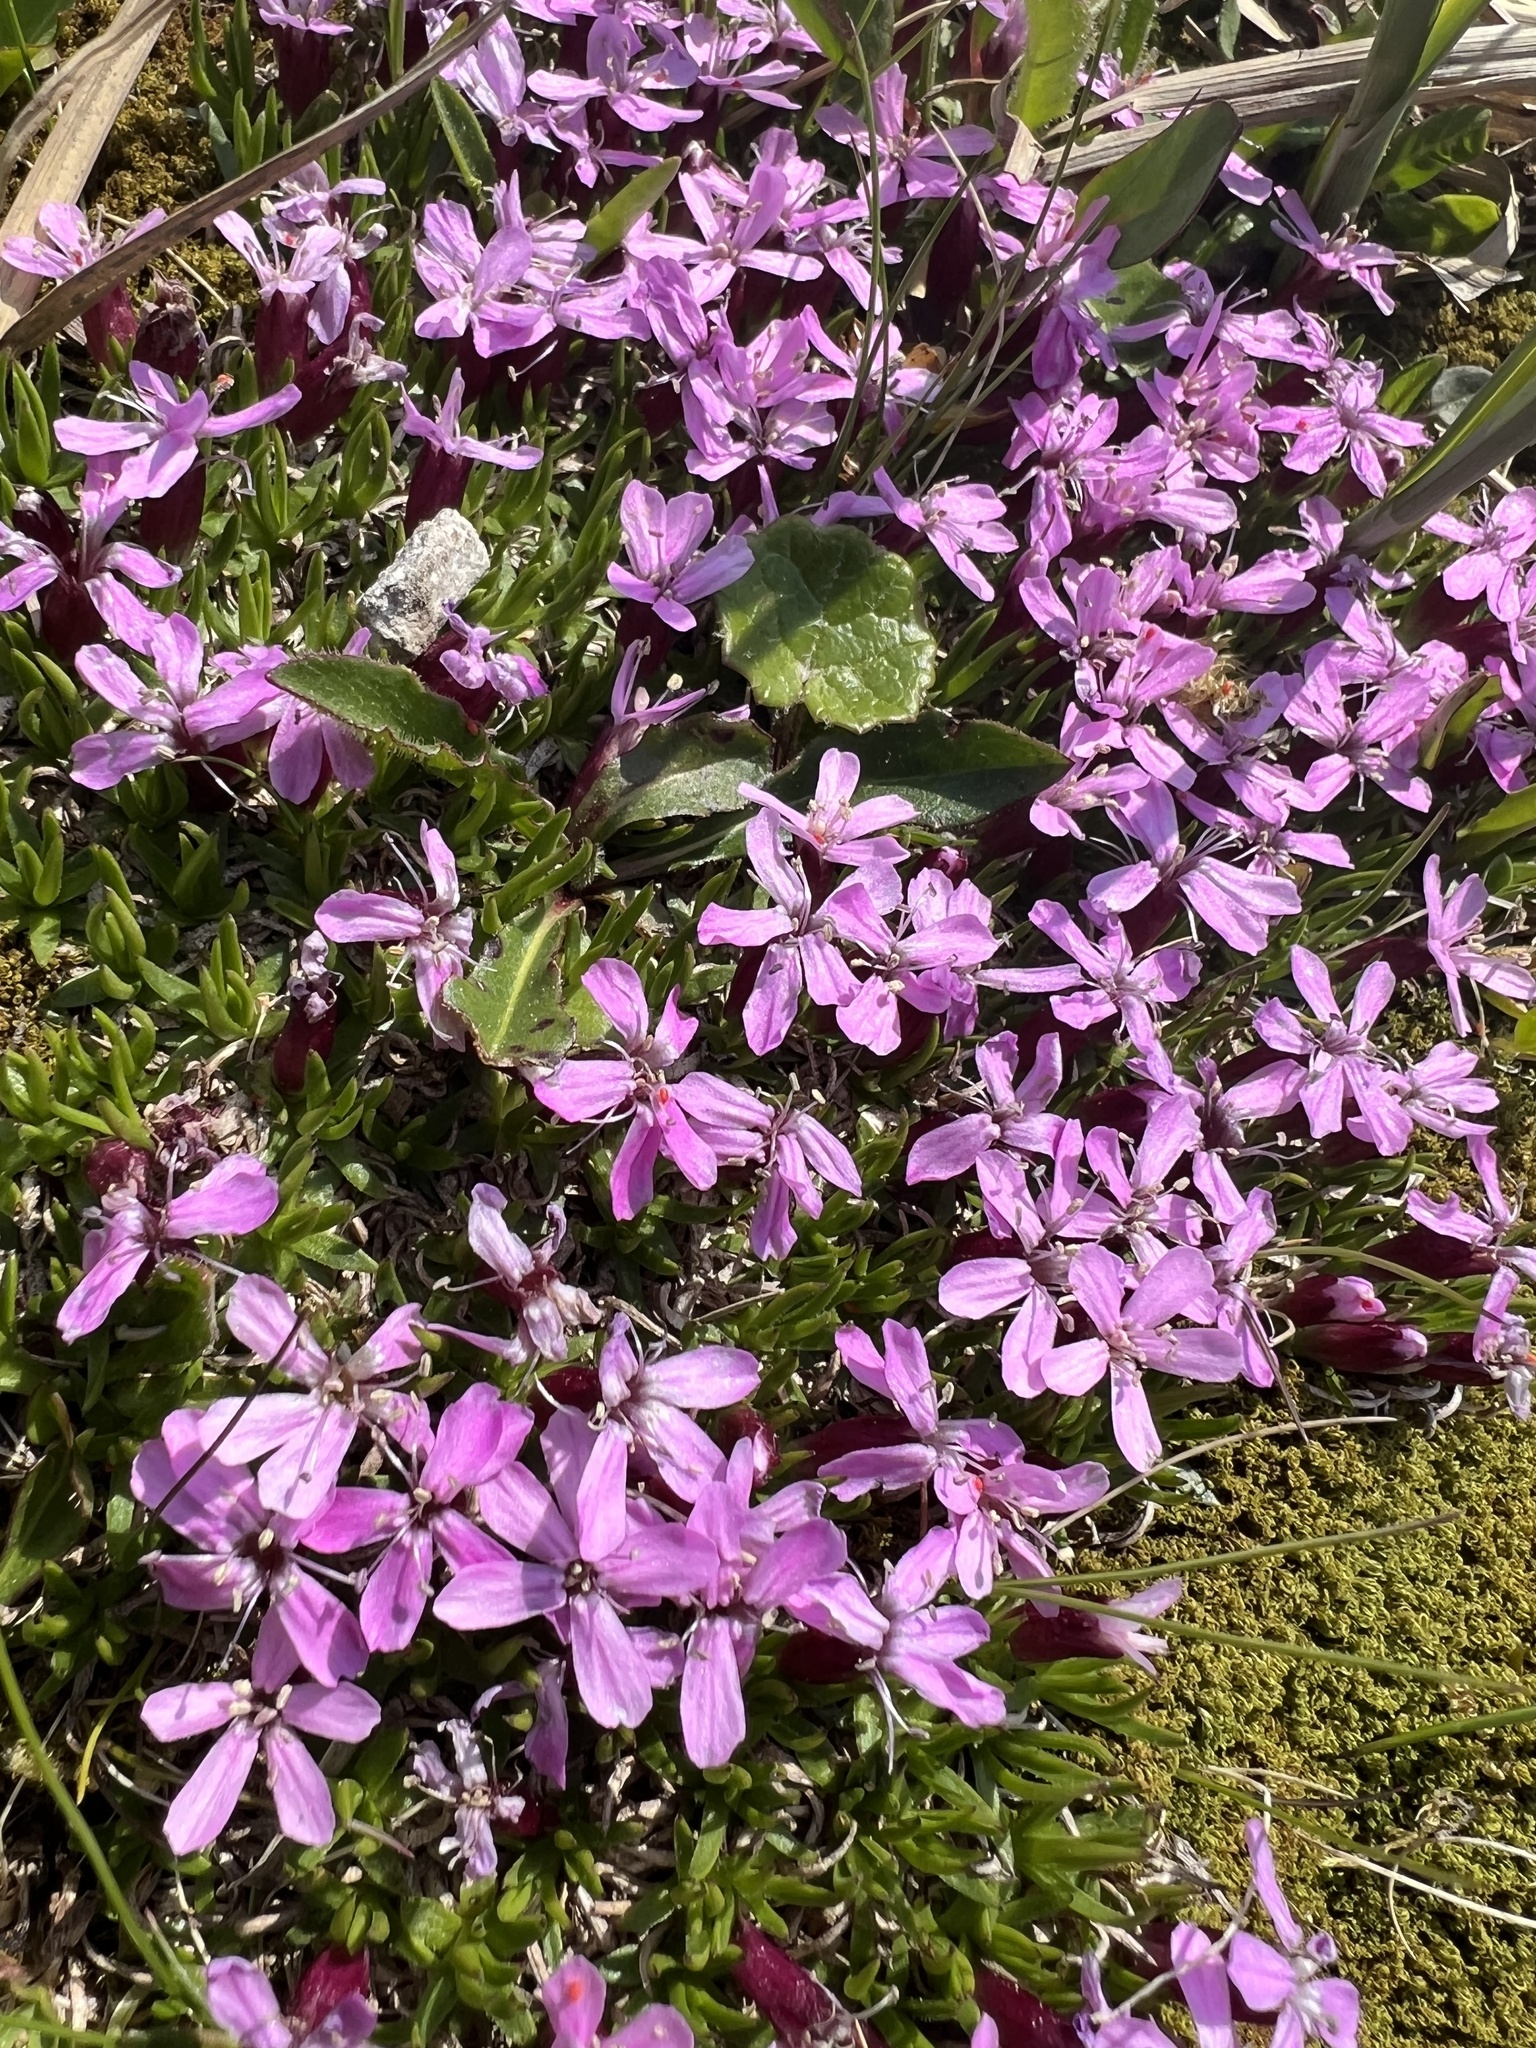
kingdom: Plantae
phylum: Tracheophyta
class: Magnoliopsida
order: Caryophyllales
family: Caryophyllaceae
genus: Silene
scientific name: Silene acaulis
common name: Moss campion
